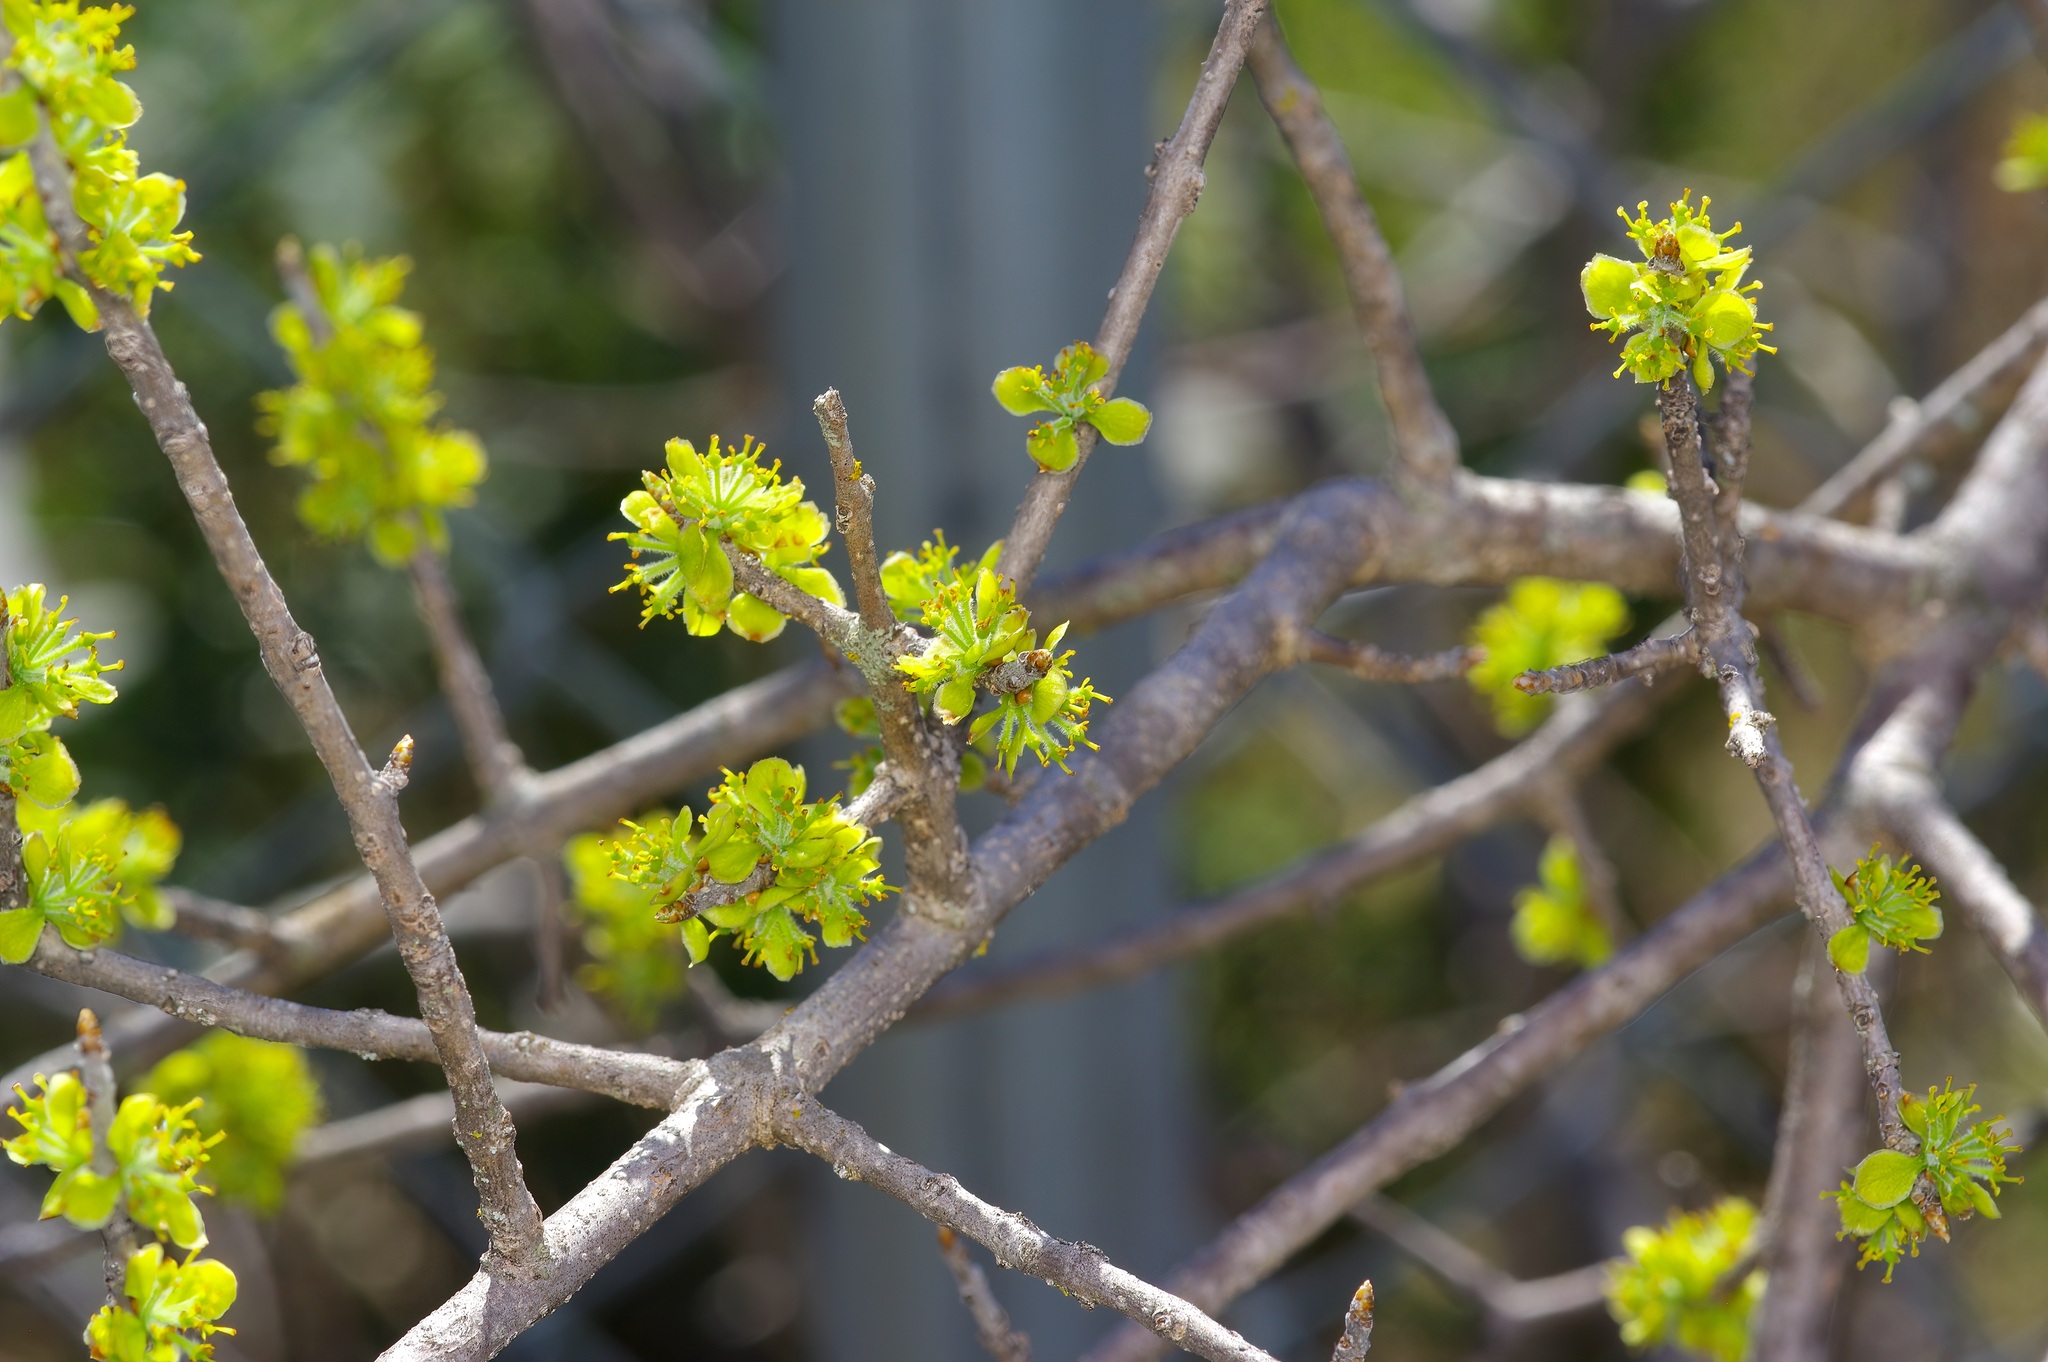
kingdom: Plantae
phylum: Tracheophyta
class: Magnoliopsida
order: Lamiales
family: Oleaceae
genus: Forestiera
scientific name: Forestiera pubescens
